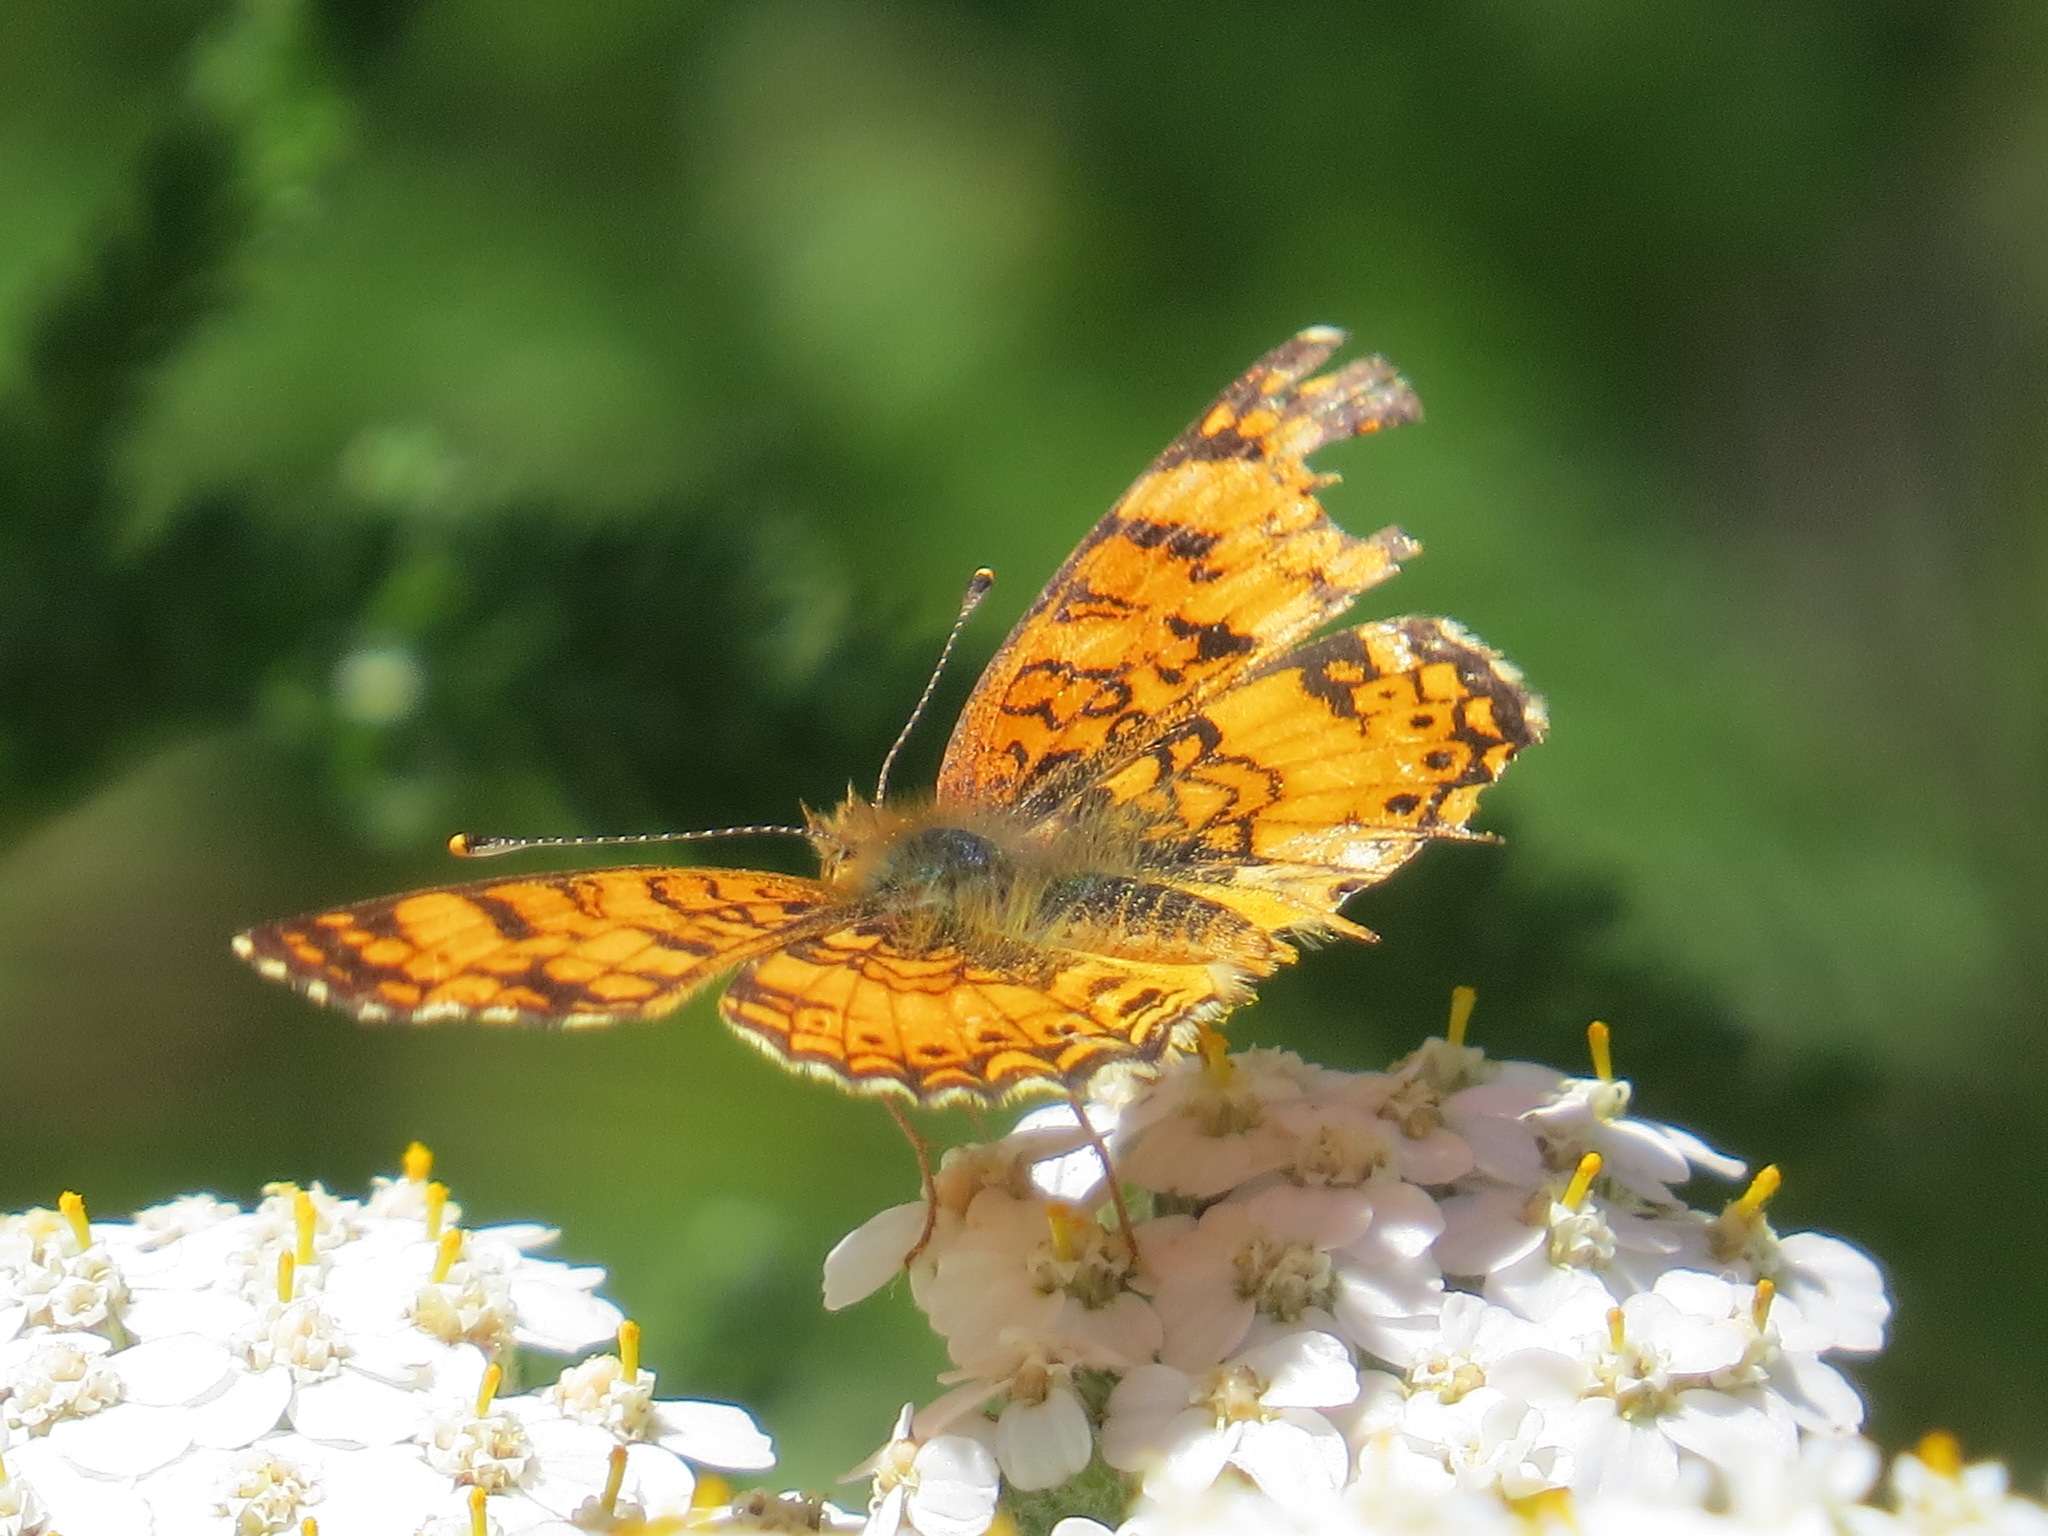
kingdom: Animalia
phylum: Arthropoda
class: Insecta
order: Lepidoptera
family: Nymphalidae
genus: Eresia
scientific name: Eresia aveyrona
